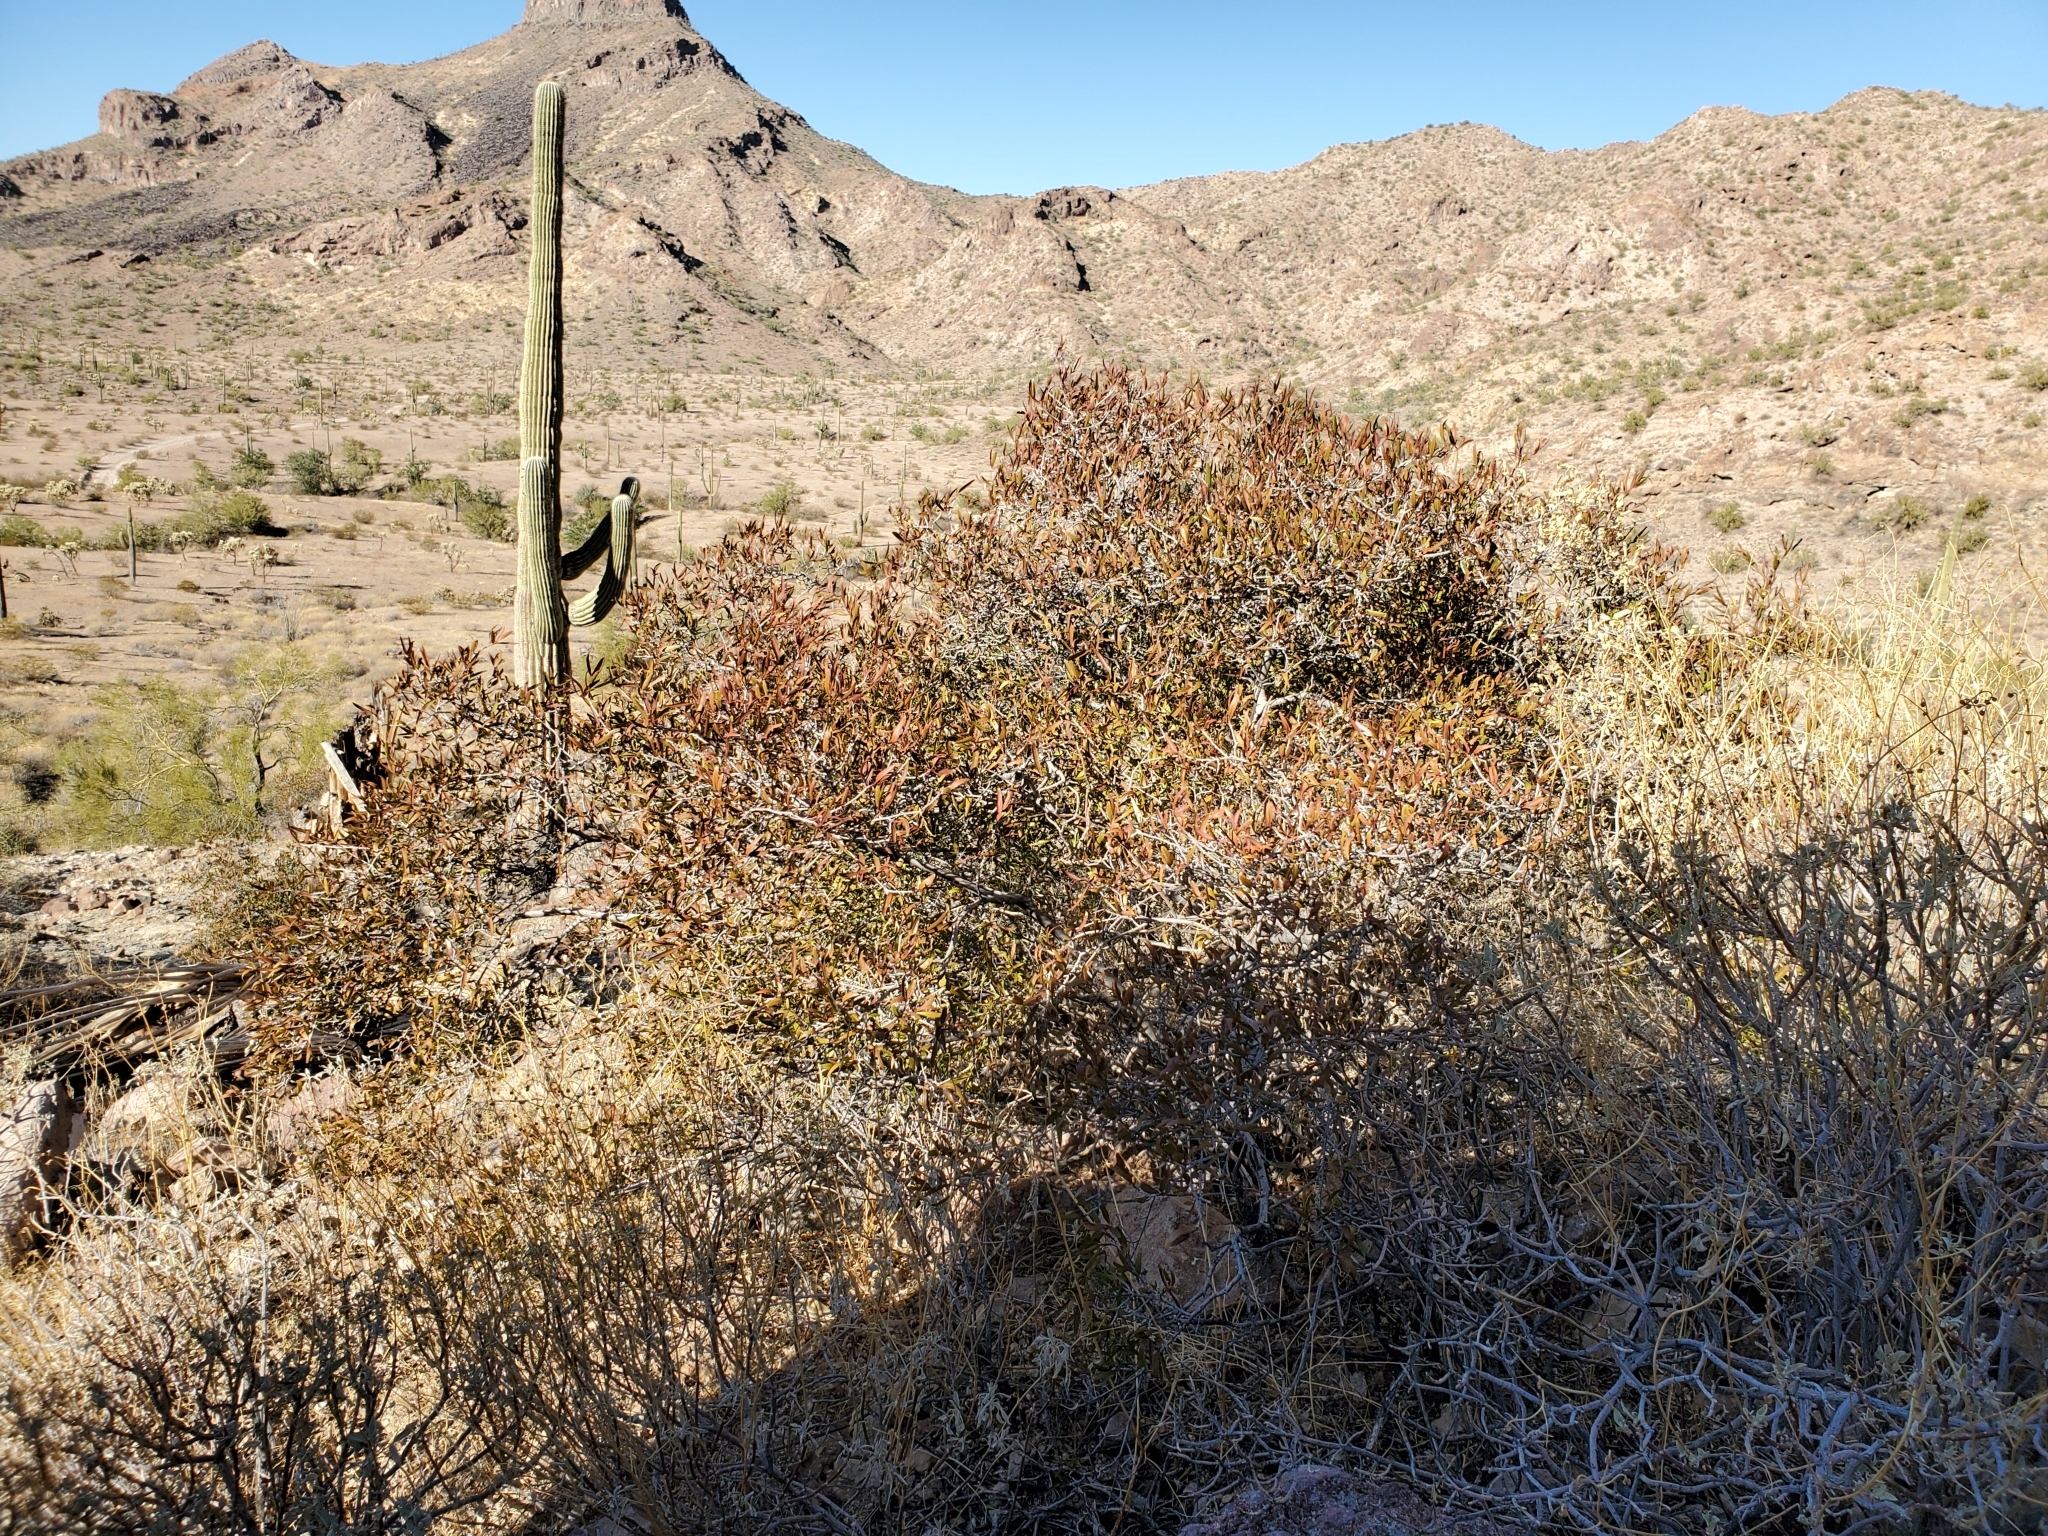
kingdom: Plantae
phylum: Tracheophyta
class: Magnoliopsida
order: Malpighiales
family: Euphorbiaceae
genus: Pleradenophora
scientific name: Pleradenophora bilocularis
